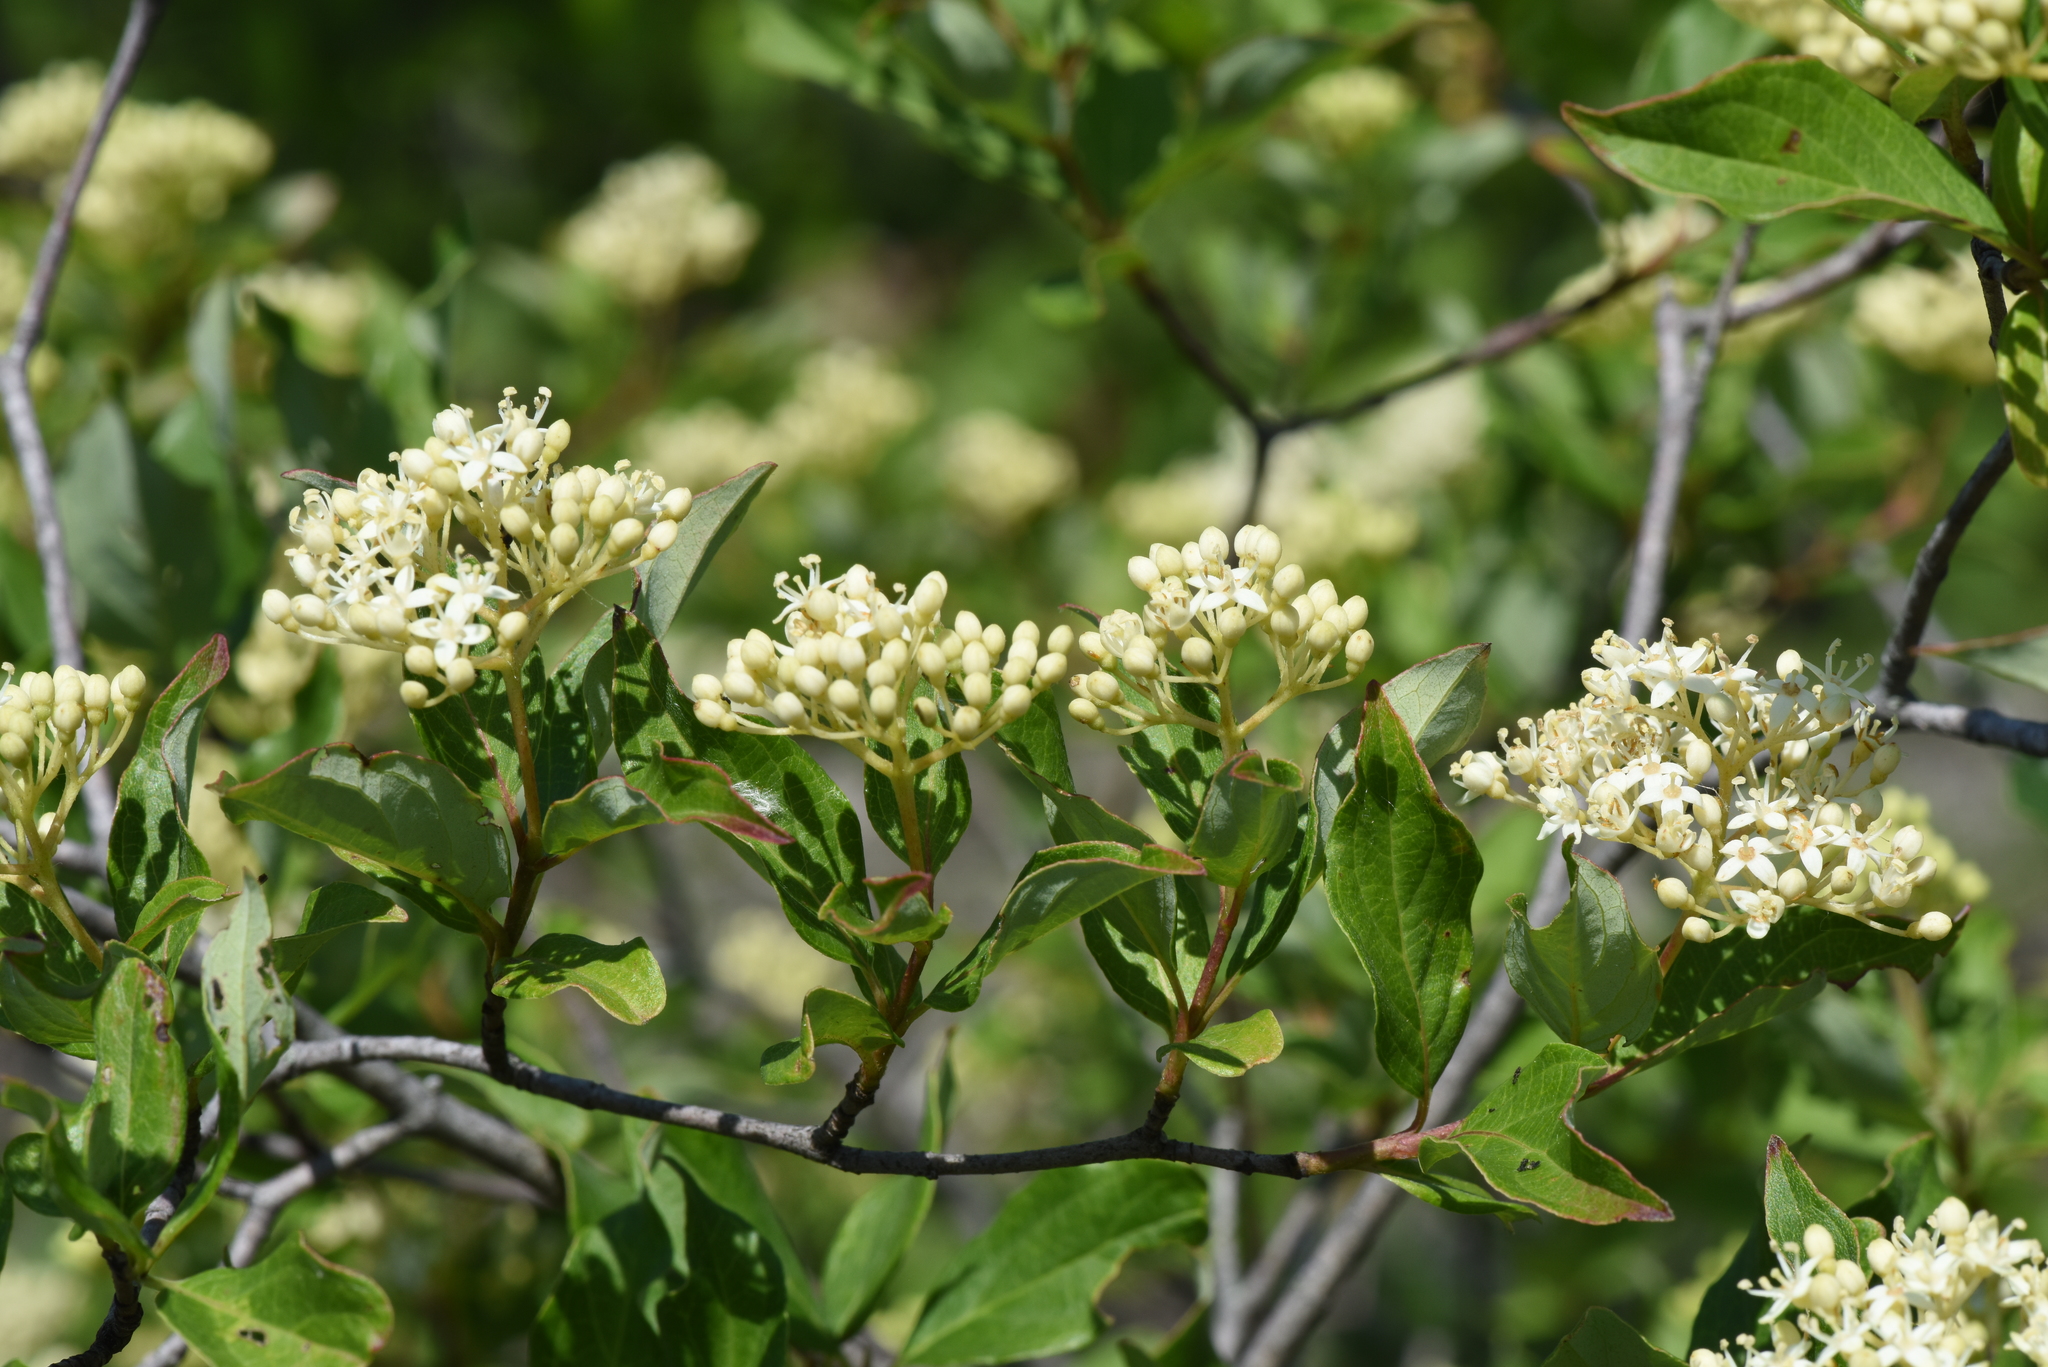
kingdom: Plantae
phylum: Tracheophyta
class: Magnoliopsida
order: Cornales
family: Cornaceae
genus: Cornus
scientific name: Cornus racemosa
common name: Panicled dogwood
